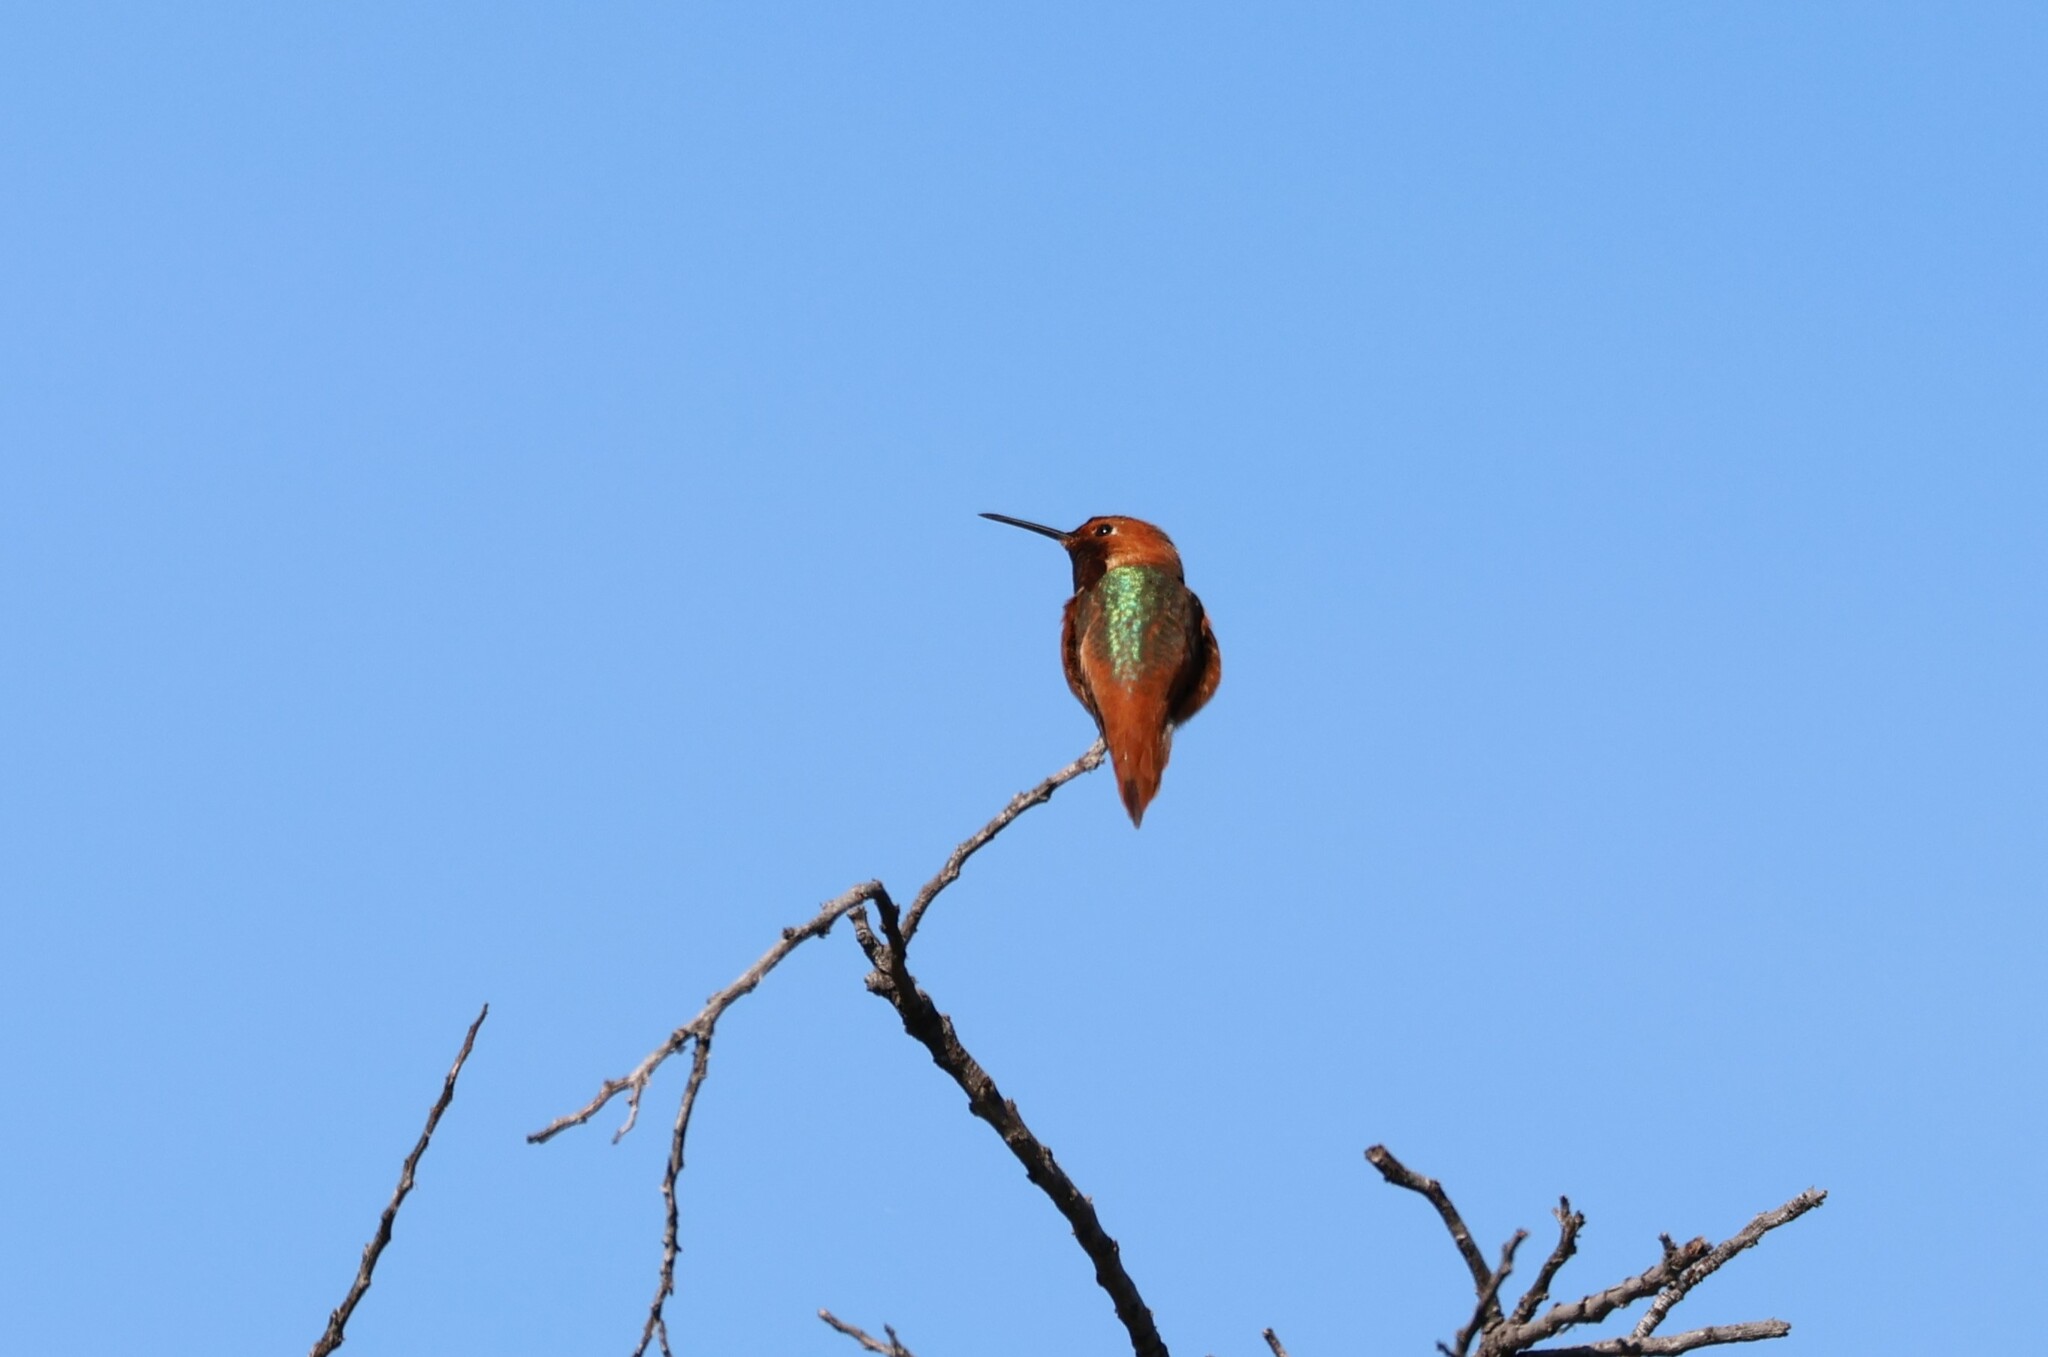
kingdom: Animalia
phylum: Chordata
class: Aves
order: Apodiformes
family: Trochilidae
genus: Selasphorus
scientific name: Selasphorus sasin
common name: Allen's hummingbird
